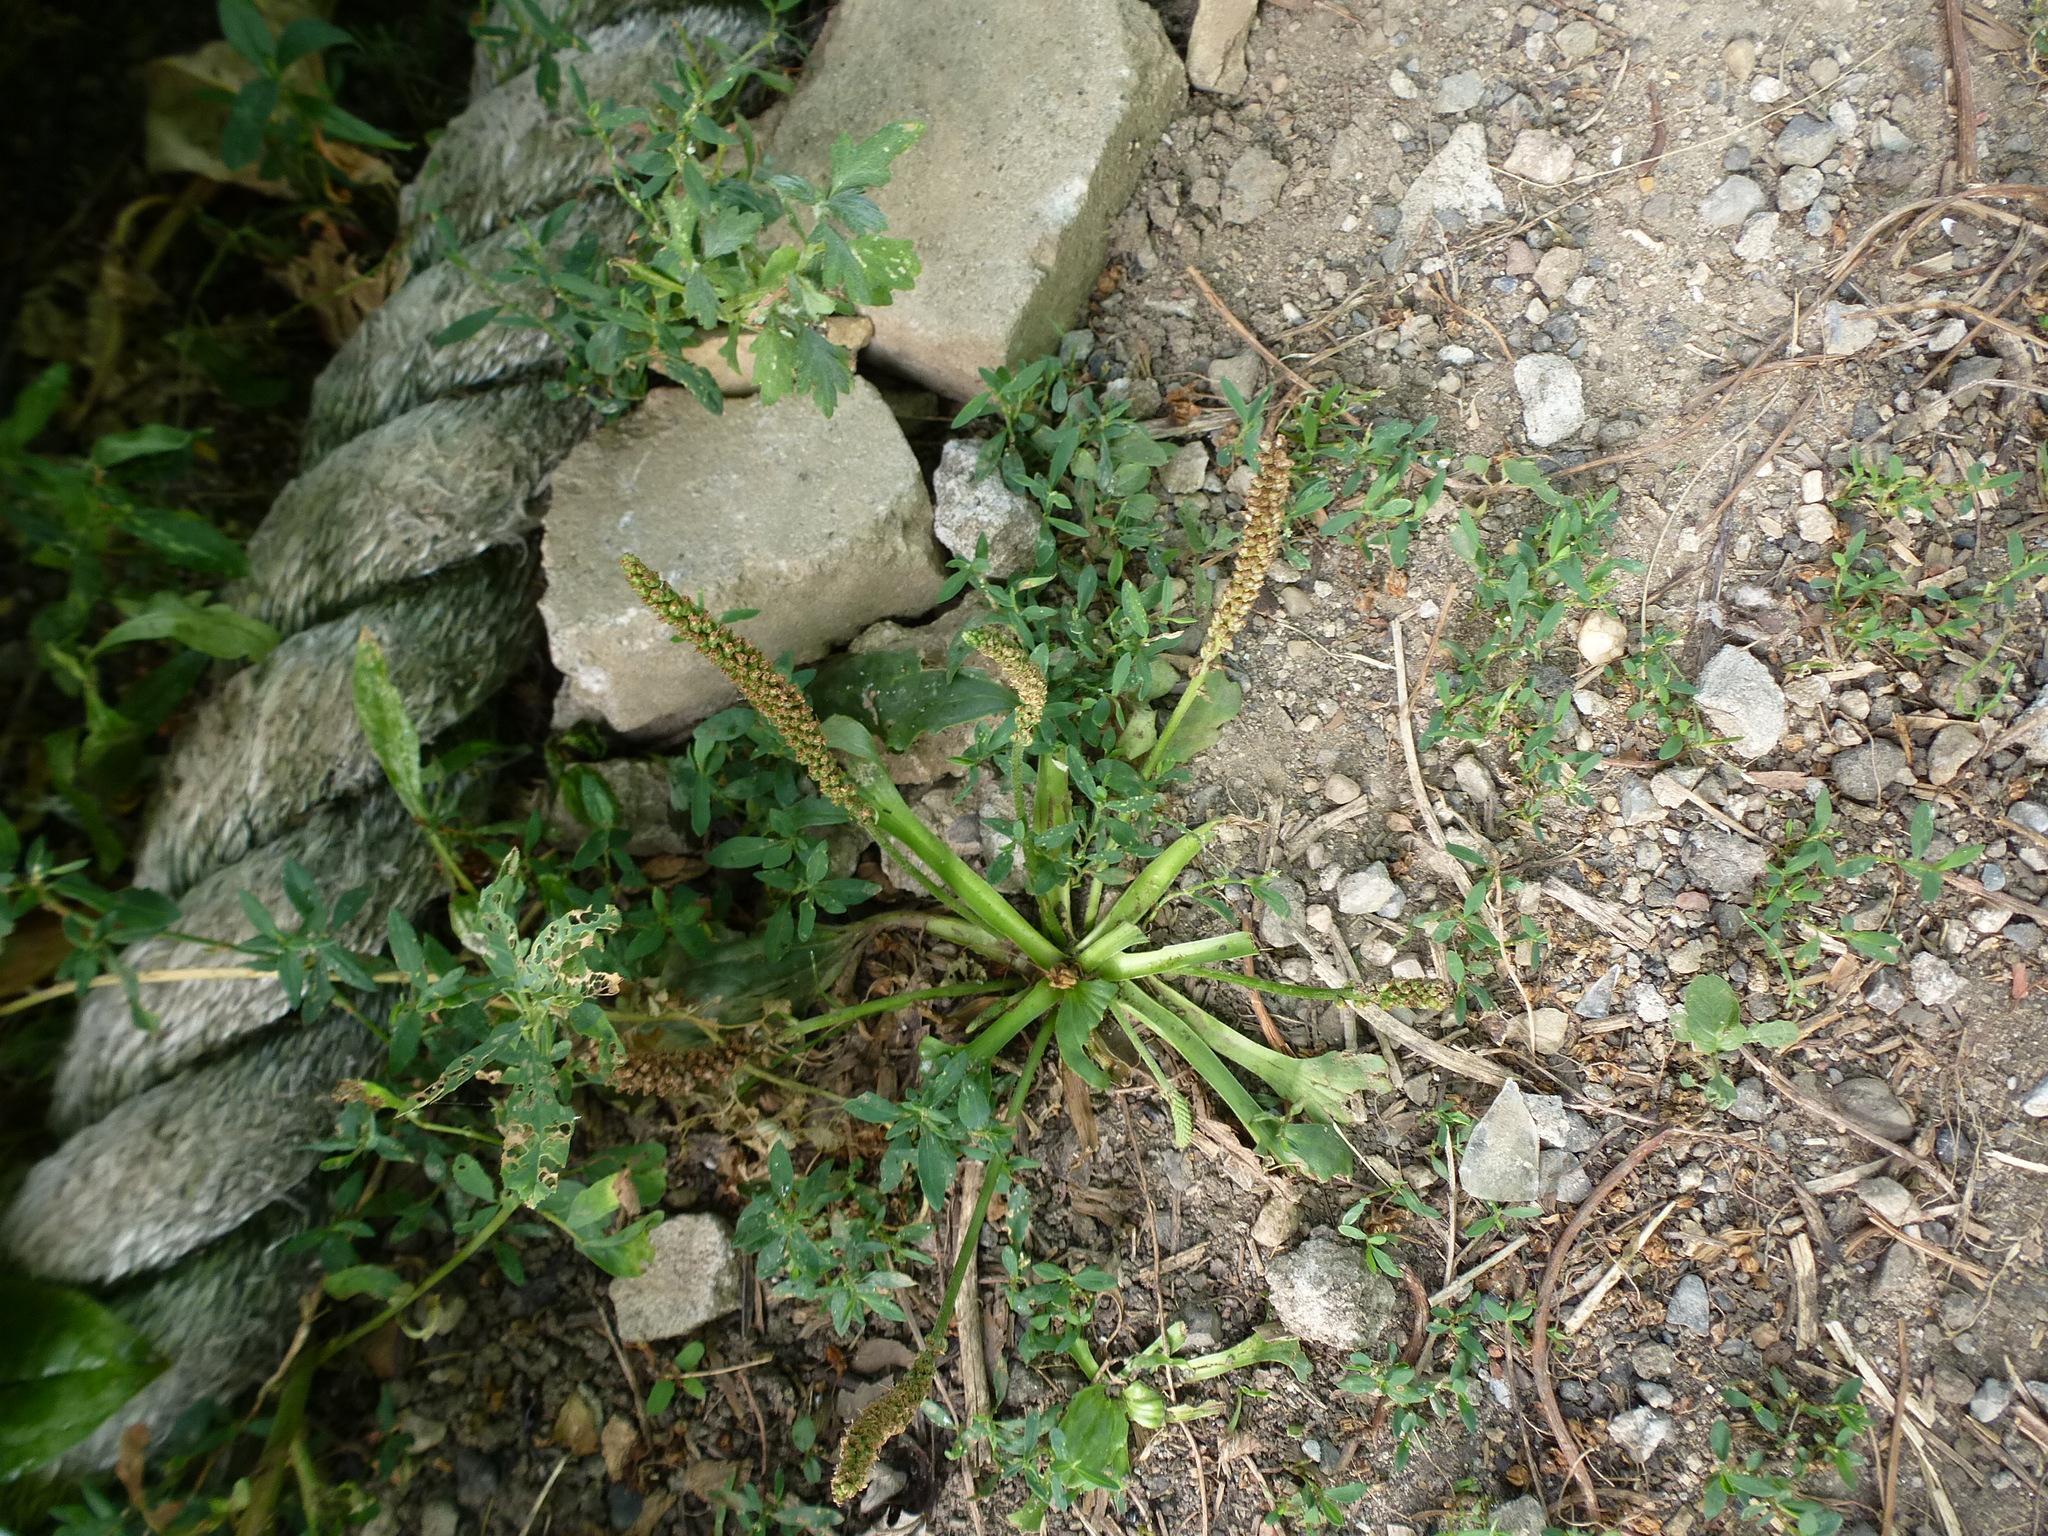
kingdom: Plantae
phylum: Tracheophyta
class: Magnoliopsida
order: Lamiales
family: Plantaginaceae
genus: Plantago
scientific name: Plantago major
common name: Common plantain
